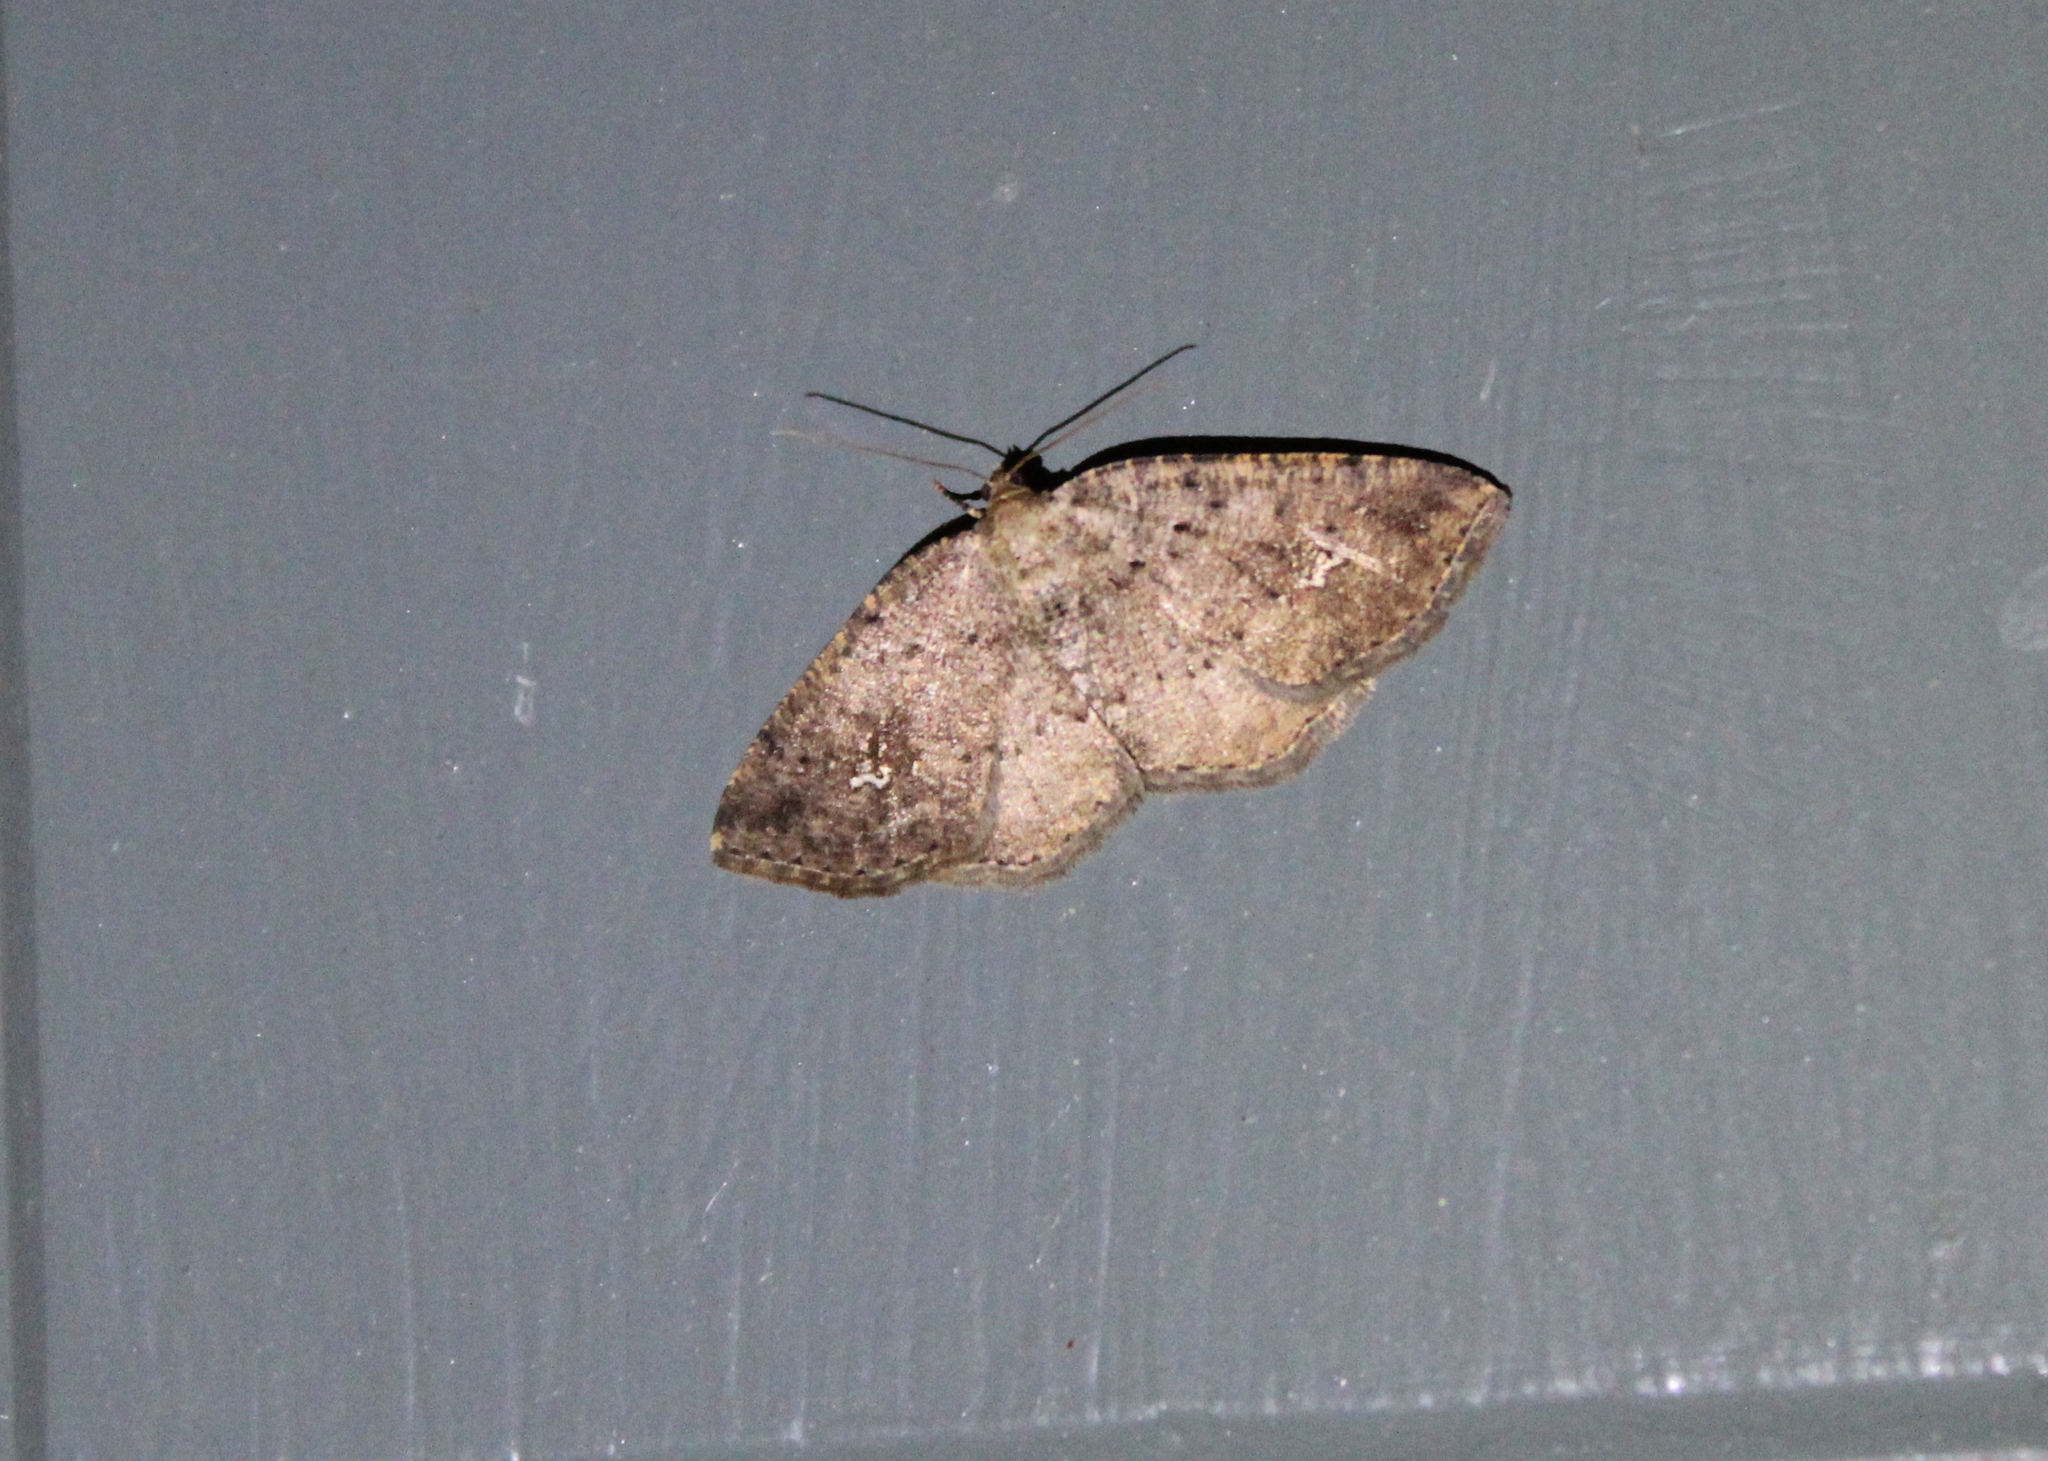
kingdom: Animalia
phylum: Arthropoda
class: Insecta
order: Lepidoptera
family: Geometridae
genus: Homochlodes
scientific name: Homochlodes fritillaria
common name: Pale homochlodes
